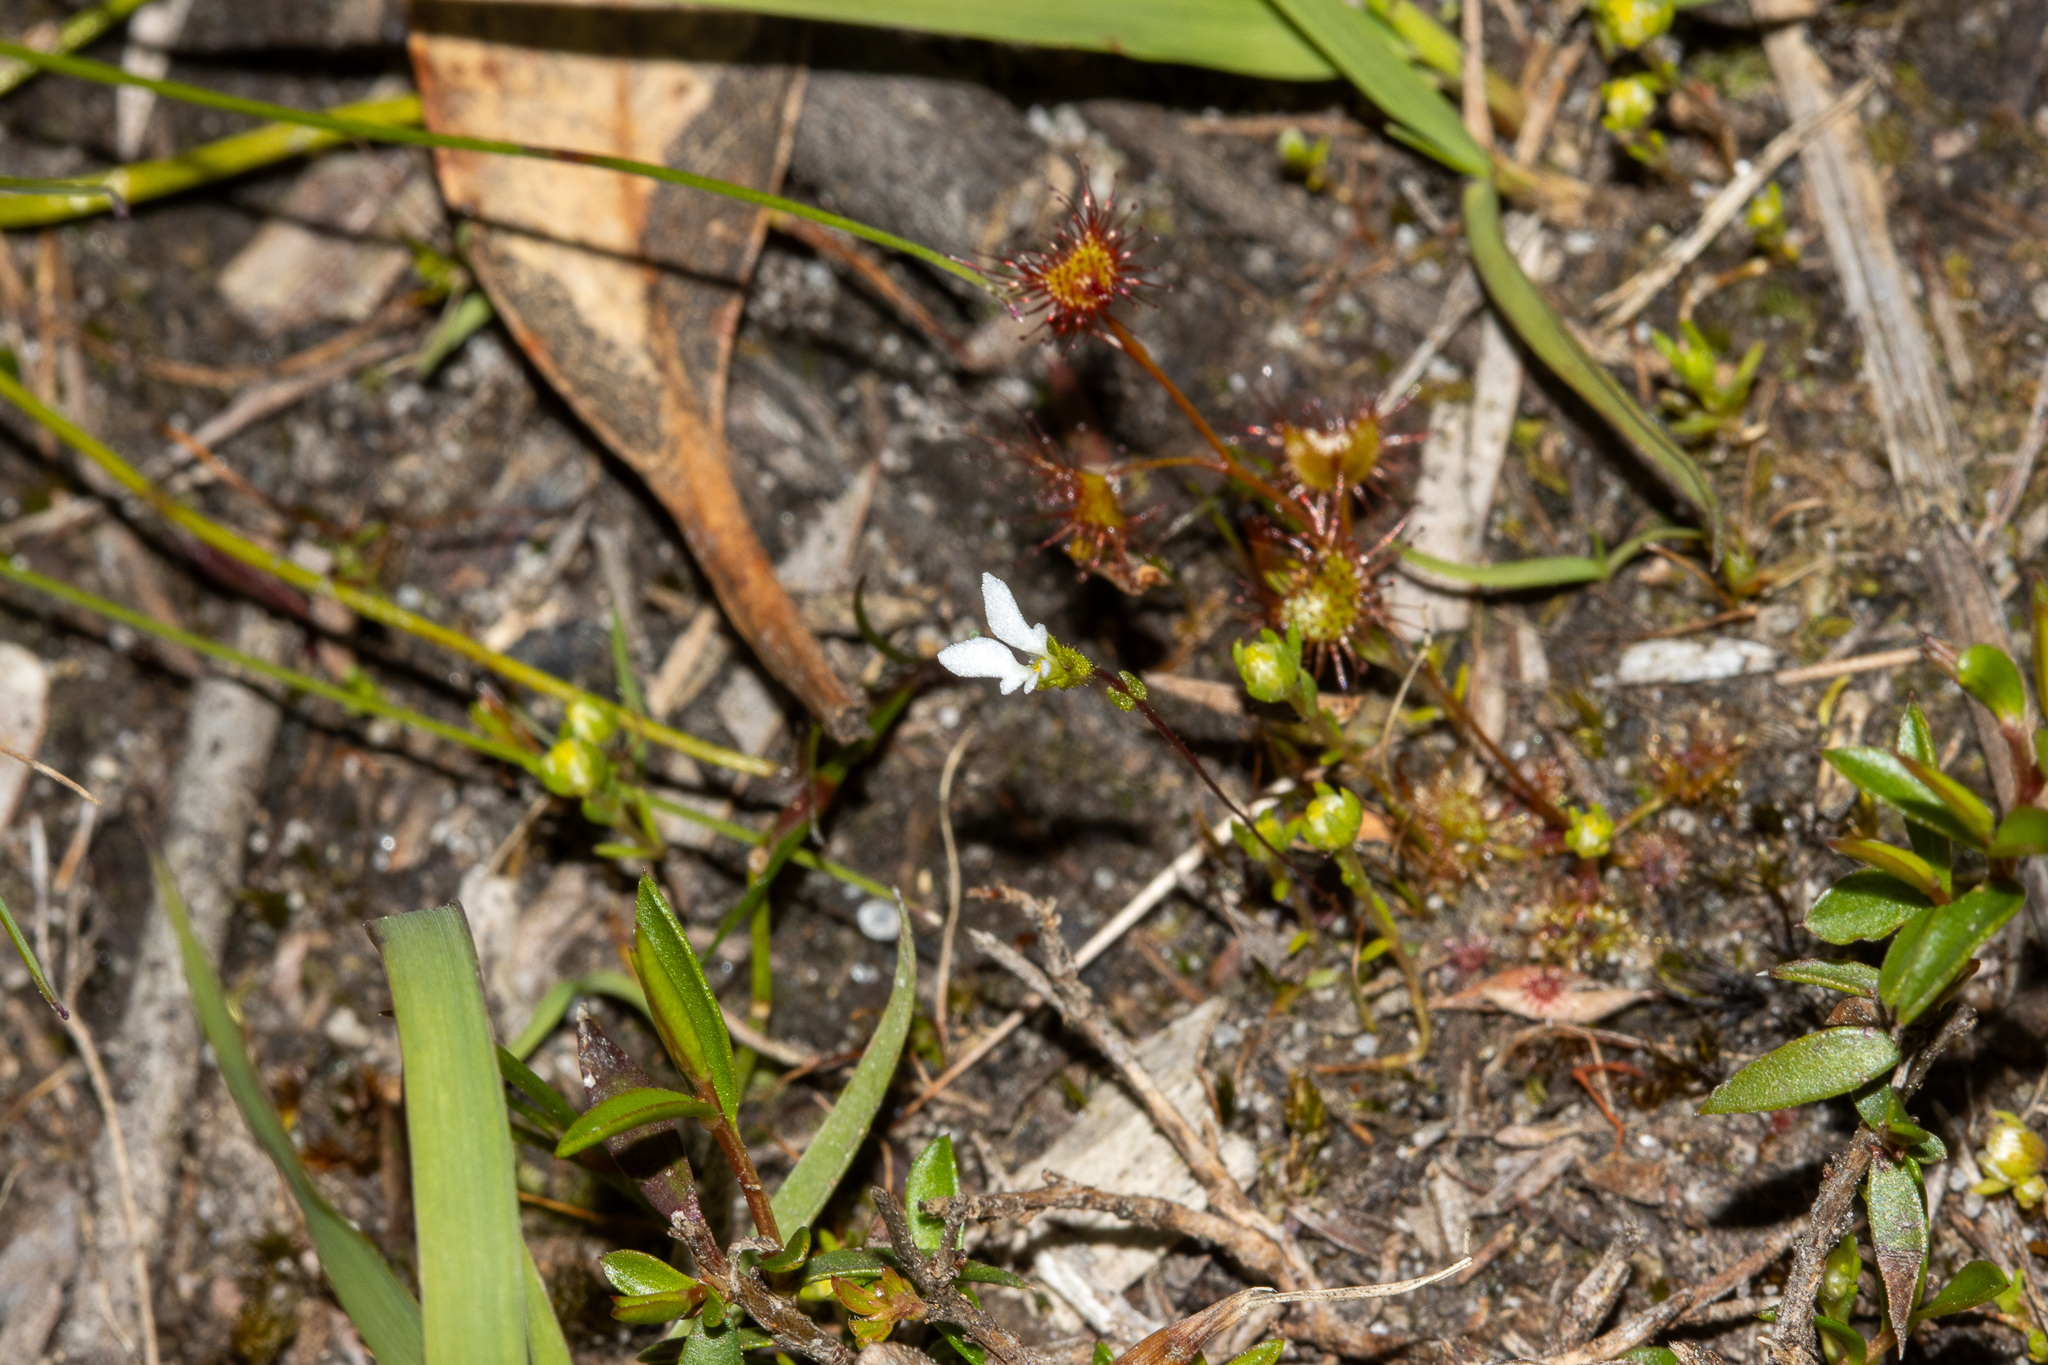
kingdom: Plantae
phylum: Tracheophyta
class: Magnoliopsida
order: Asterales
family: Stylidiaceae
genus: Stylidium
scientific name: Stylidium perpusillum
